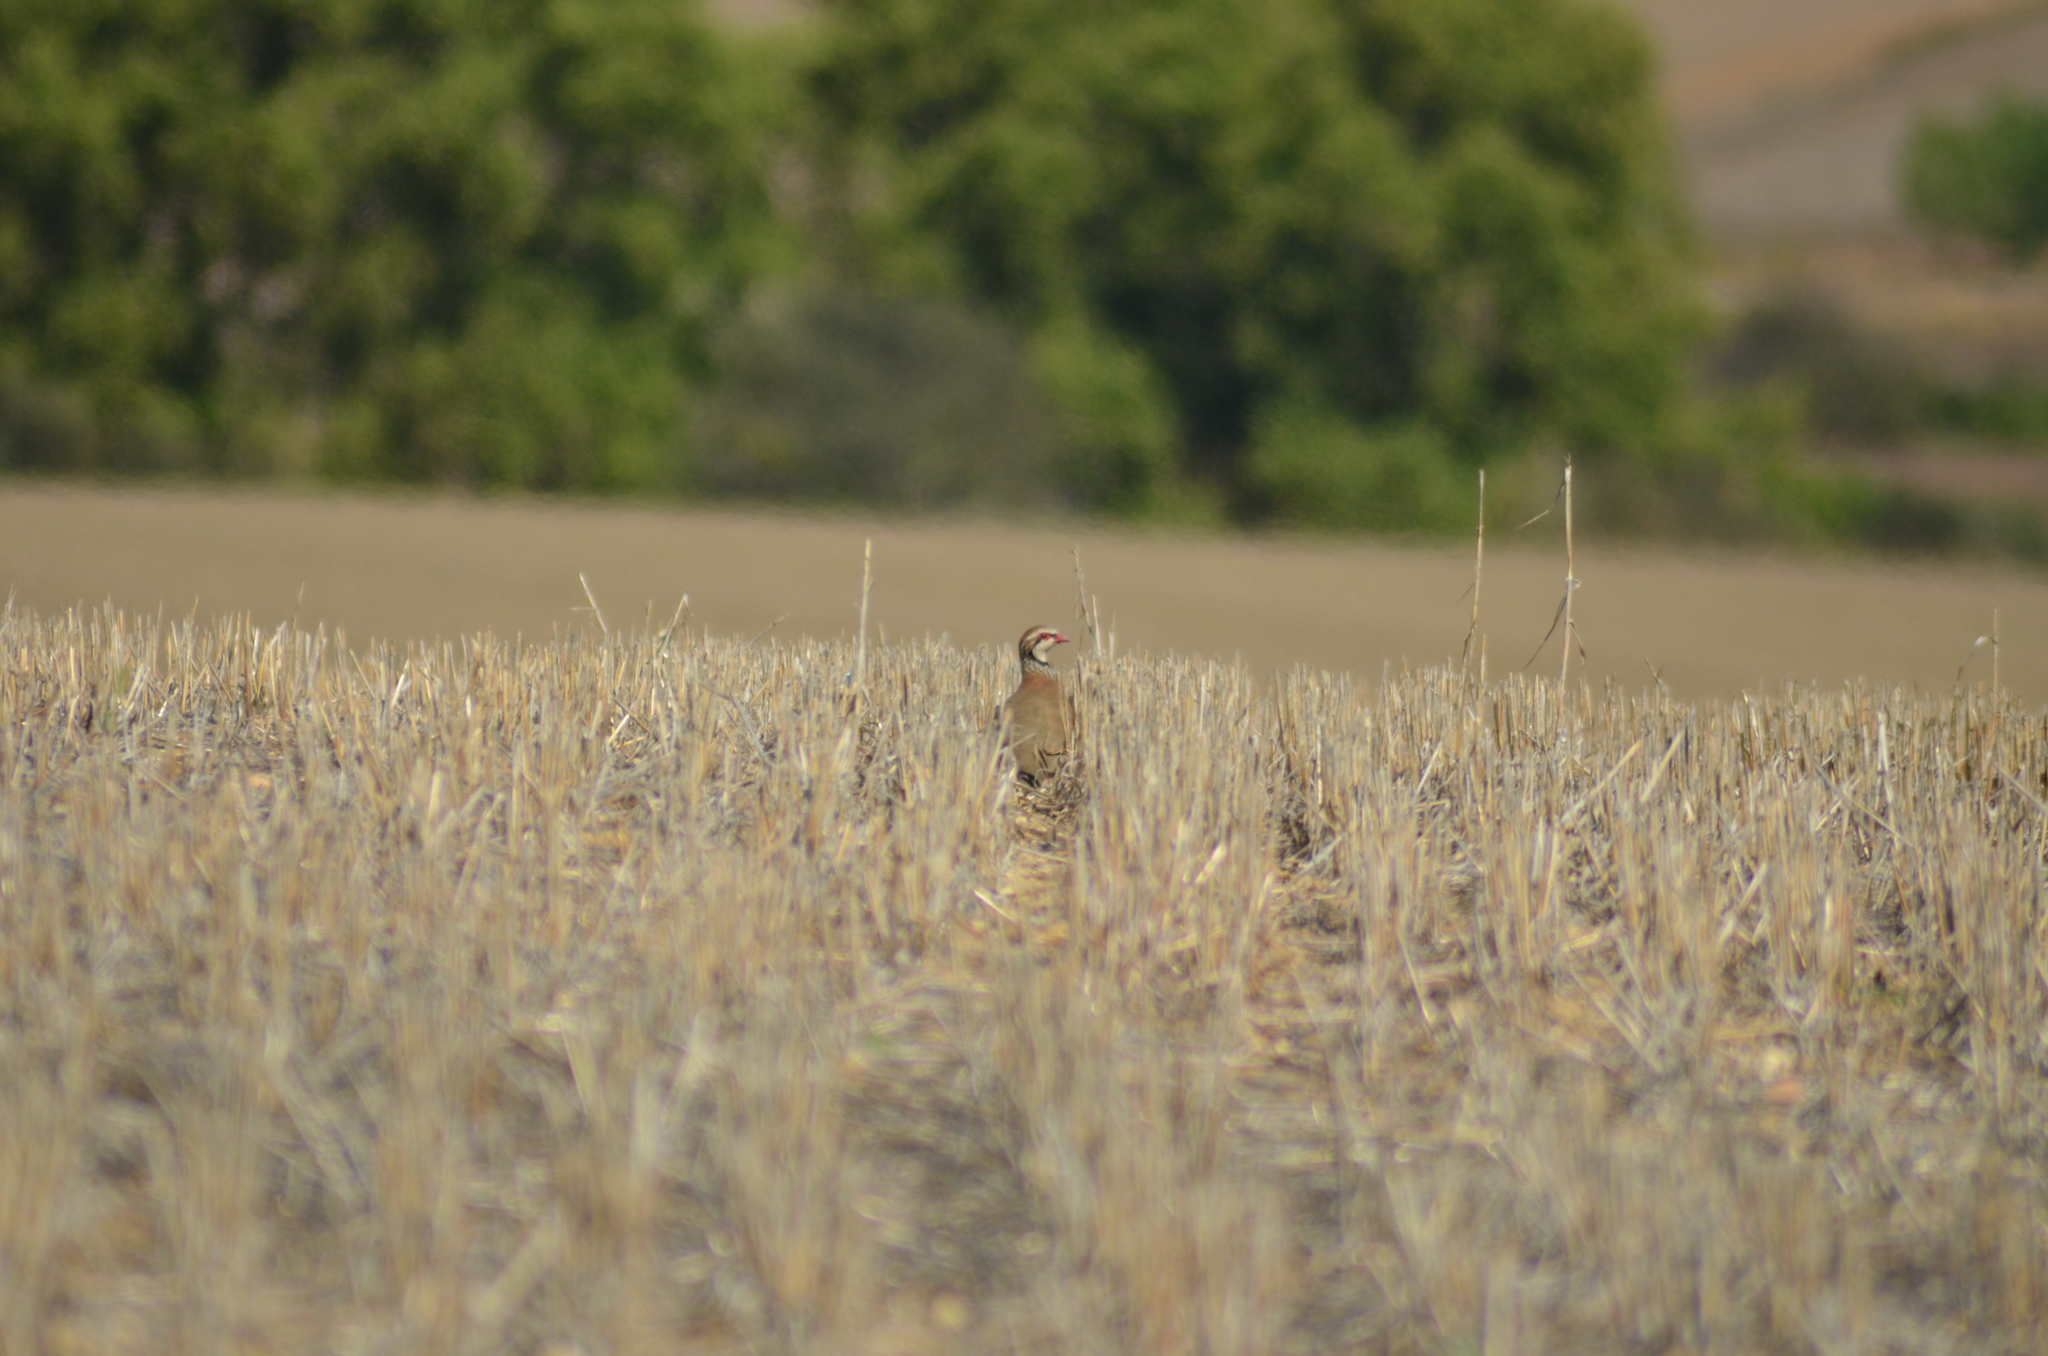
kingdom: Animalia
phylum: Chordata
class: Aves
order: Galliformes
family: Phasianidae
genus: Alectoris
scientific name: Alectoris rufa
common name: Red-legged partridge
